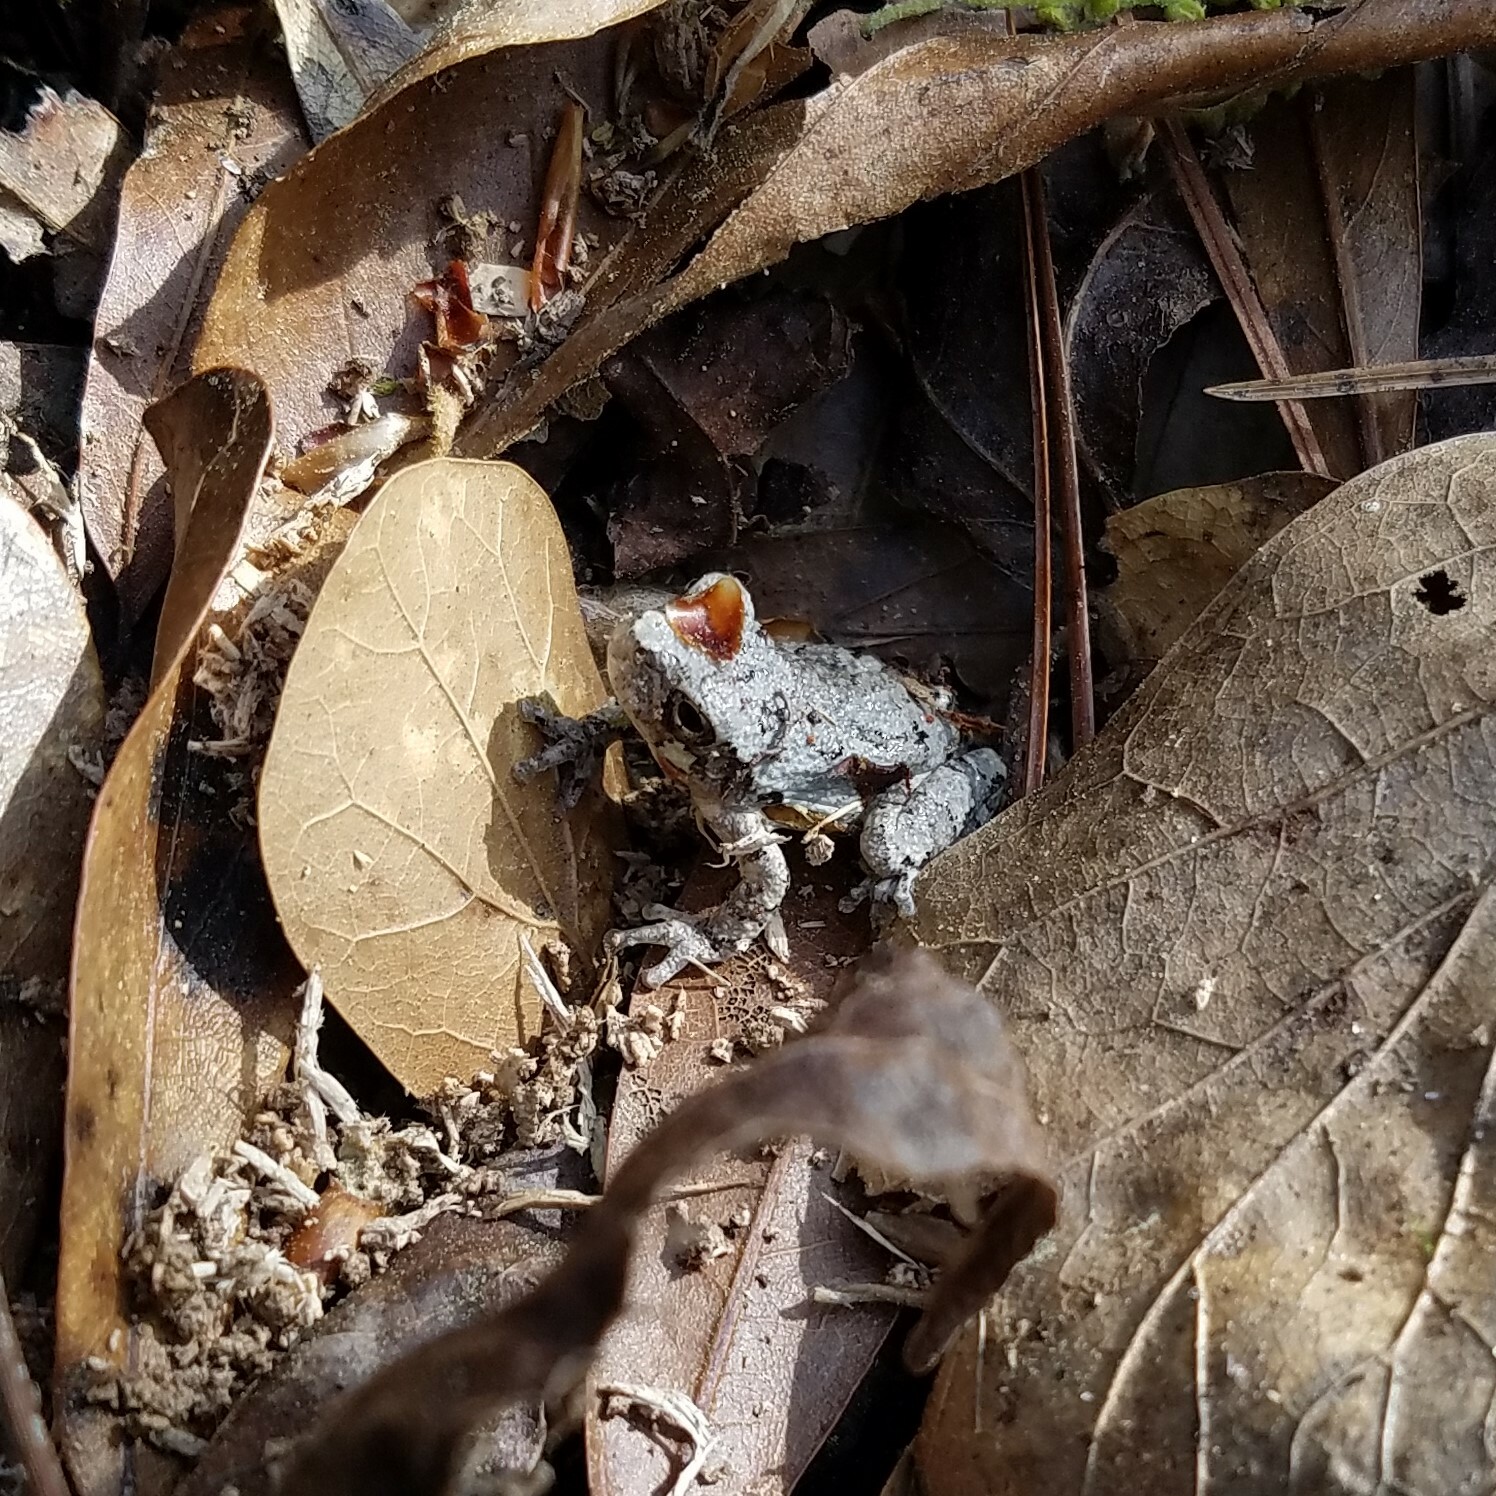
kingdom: Animalia
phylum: Chordata
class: Amphibia
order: Anura
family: Hylidae
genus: Dryophytes
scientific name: Dryophytes chrysoscelis
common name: Cope's gray treefrog
